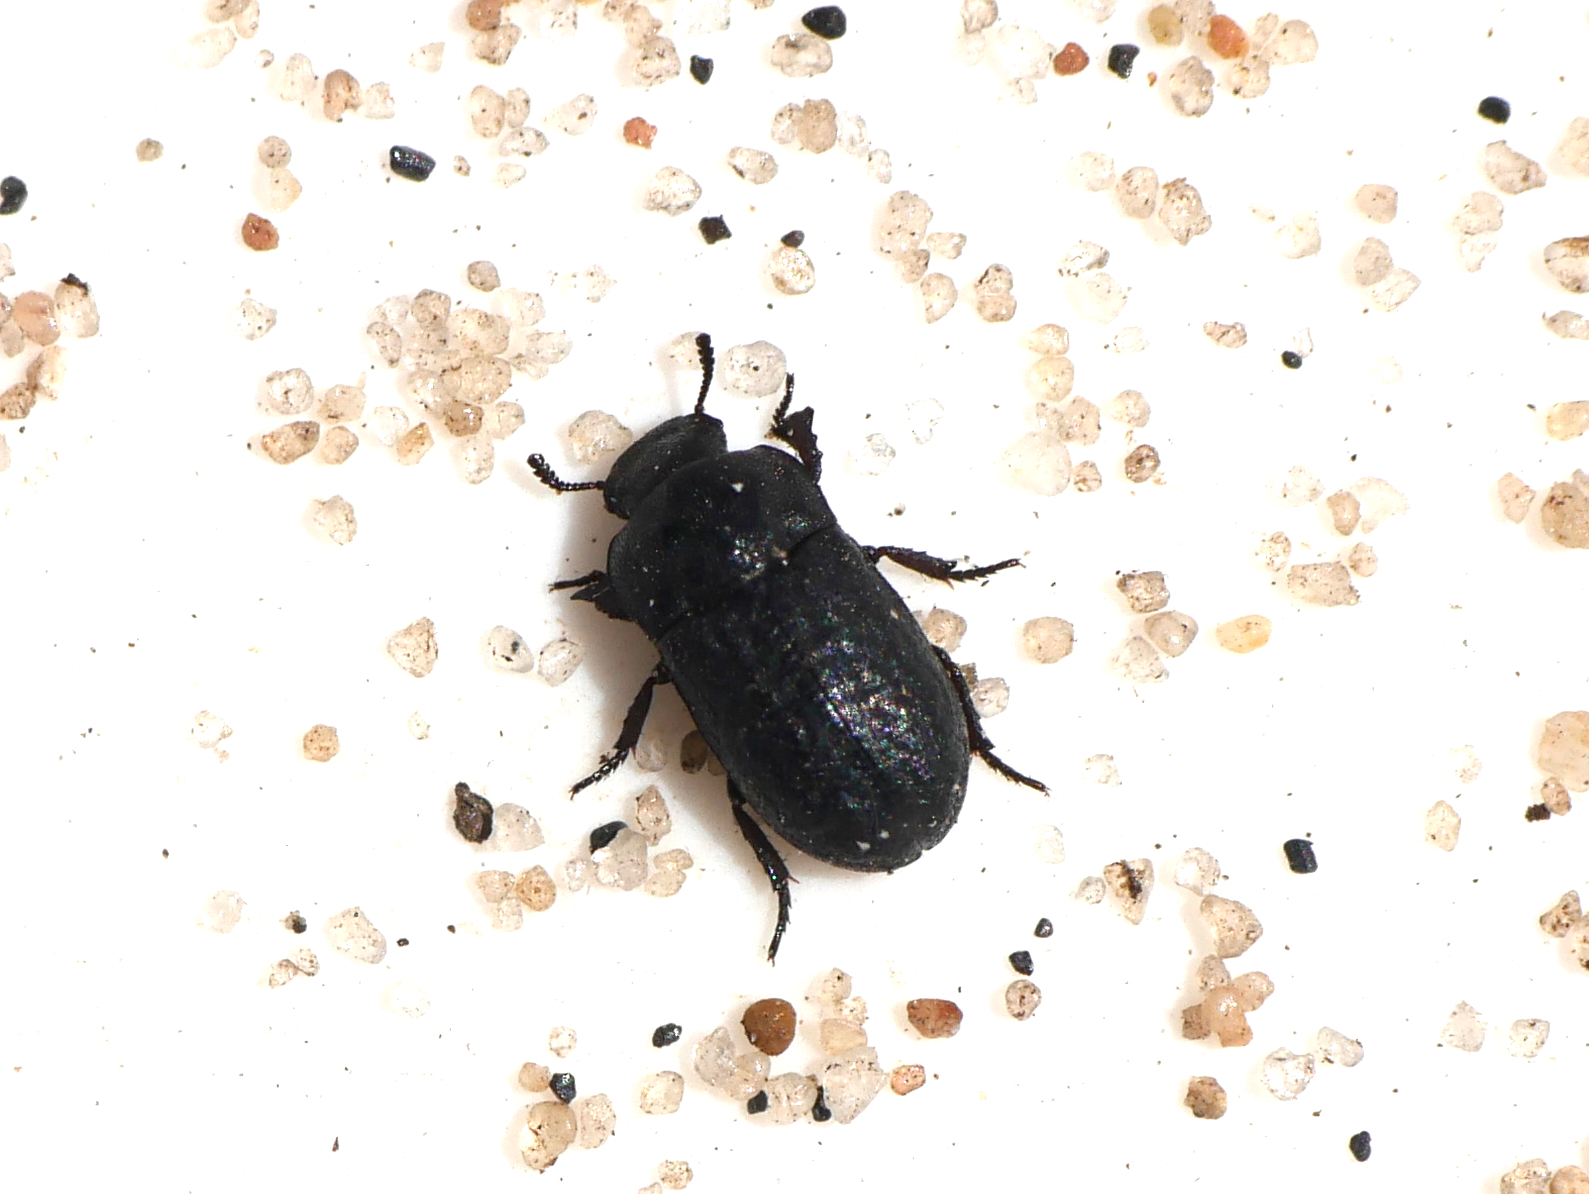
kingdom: Animalia
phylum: Arthropoda
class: Insecta
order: Coleoptera
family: Tenebrionidae
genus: Melanimon
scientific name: Melanimon tibialis
